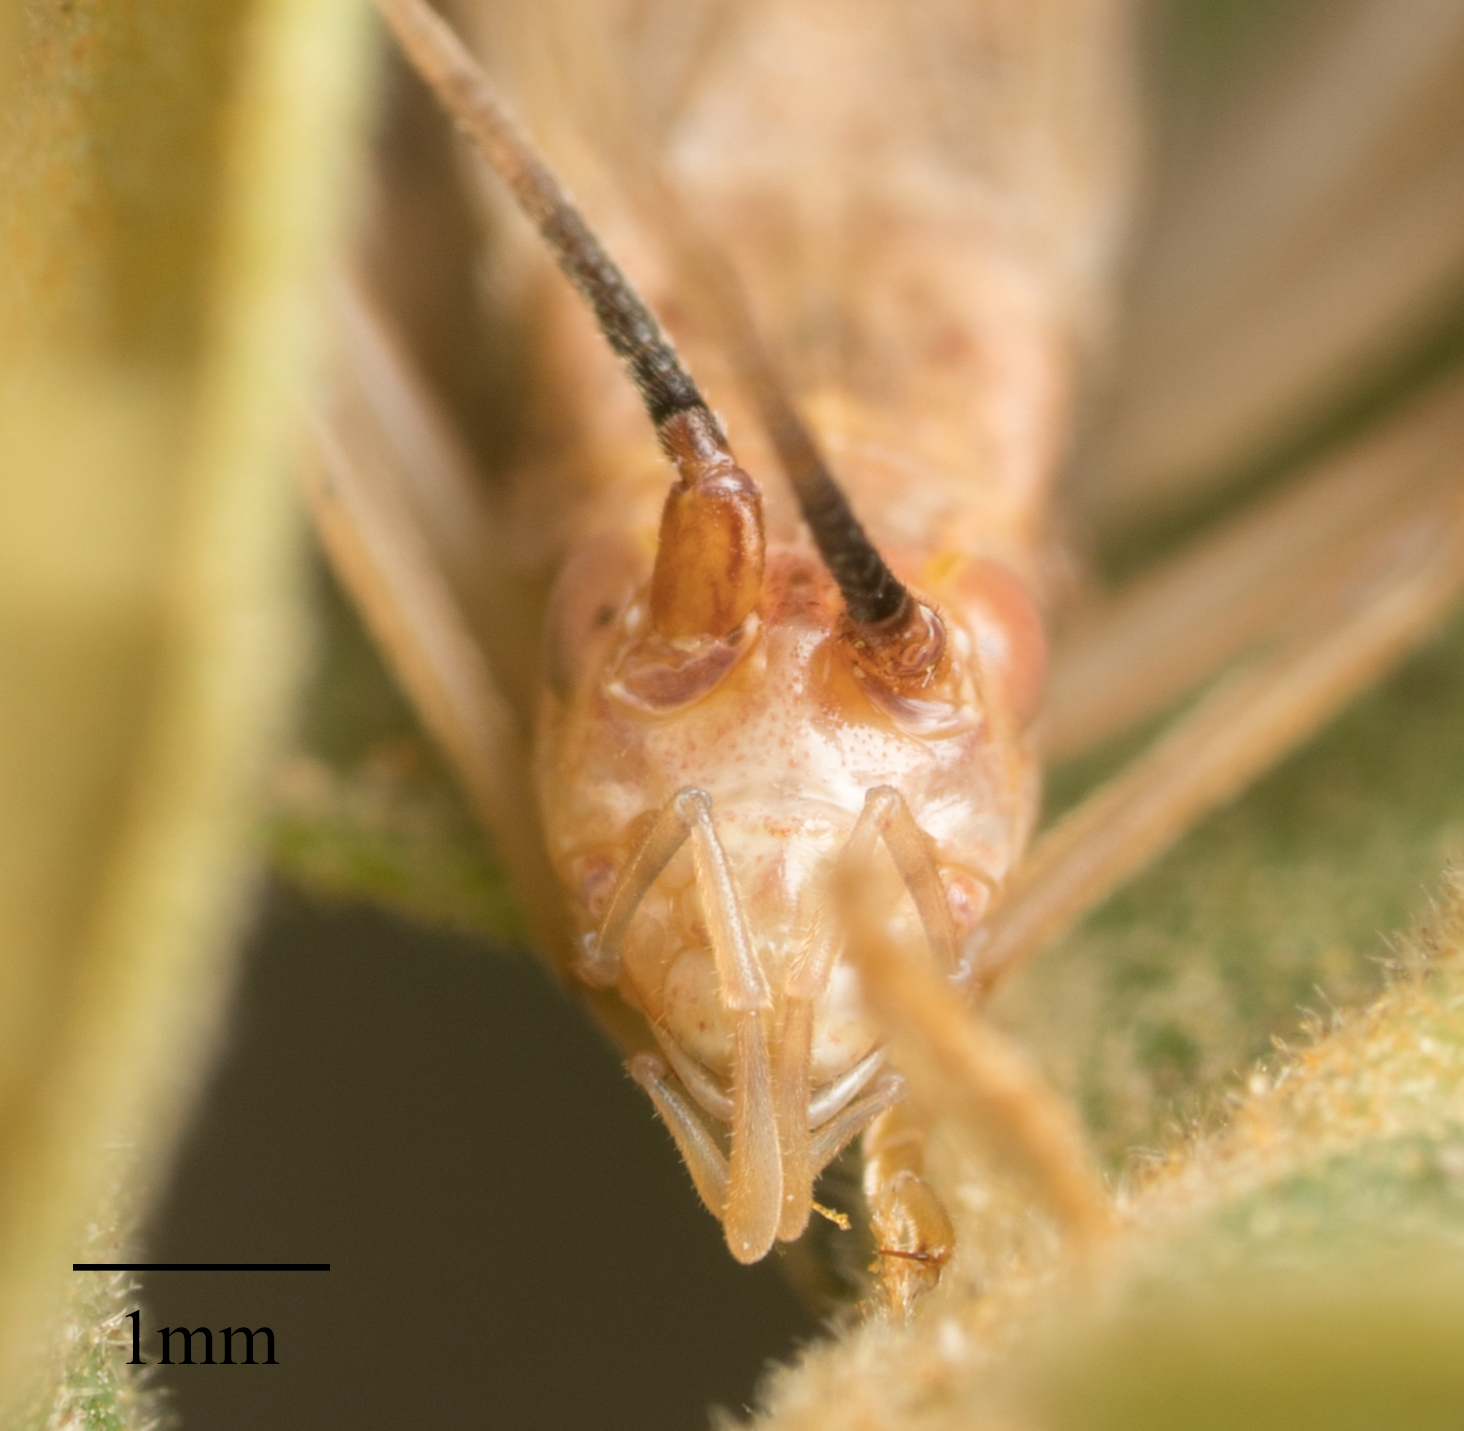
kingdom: Animalia
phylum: Arthropoda
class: Insecta
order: Orthoptera
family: Gryllidae
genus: Oecanthus
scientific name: Oecanthus californicus
